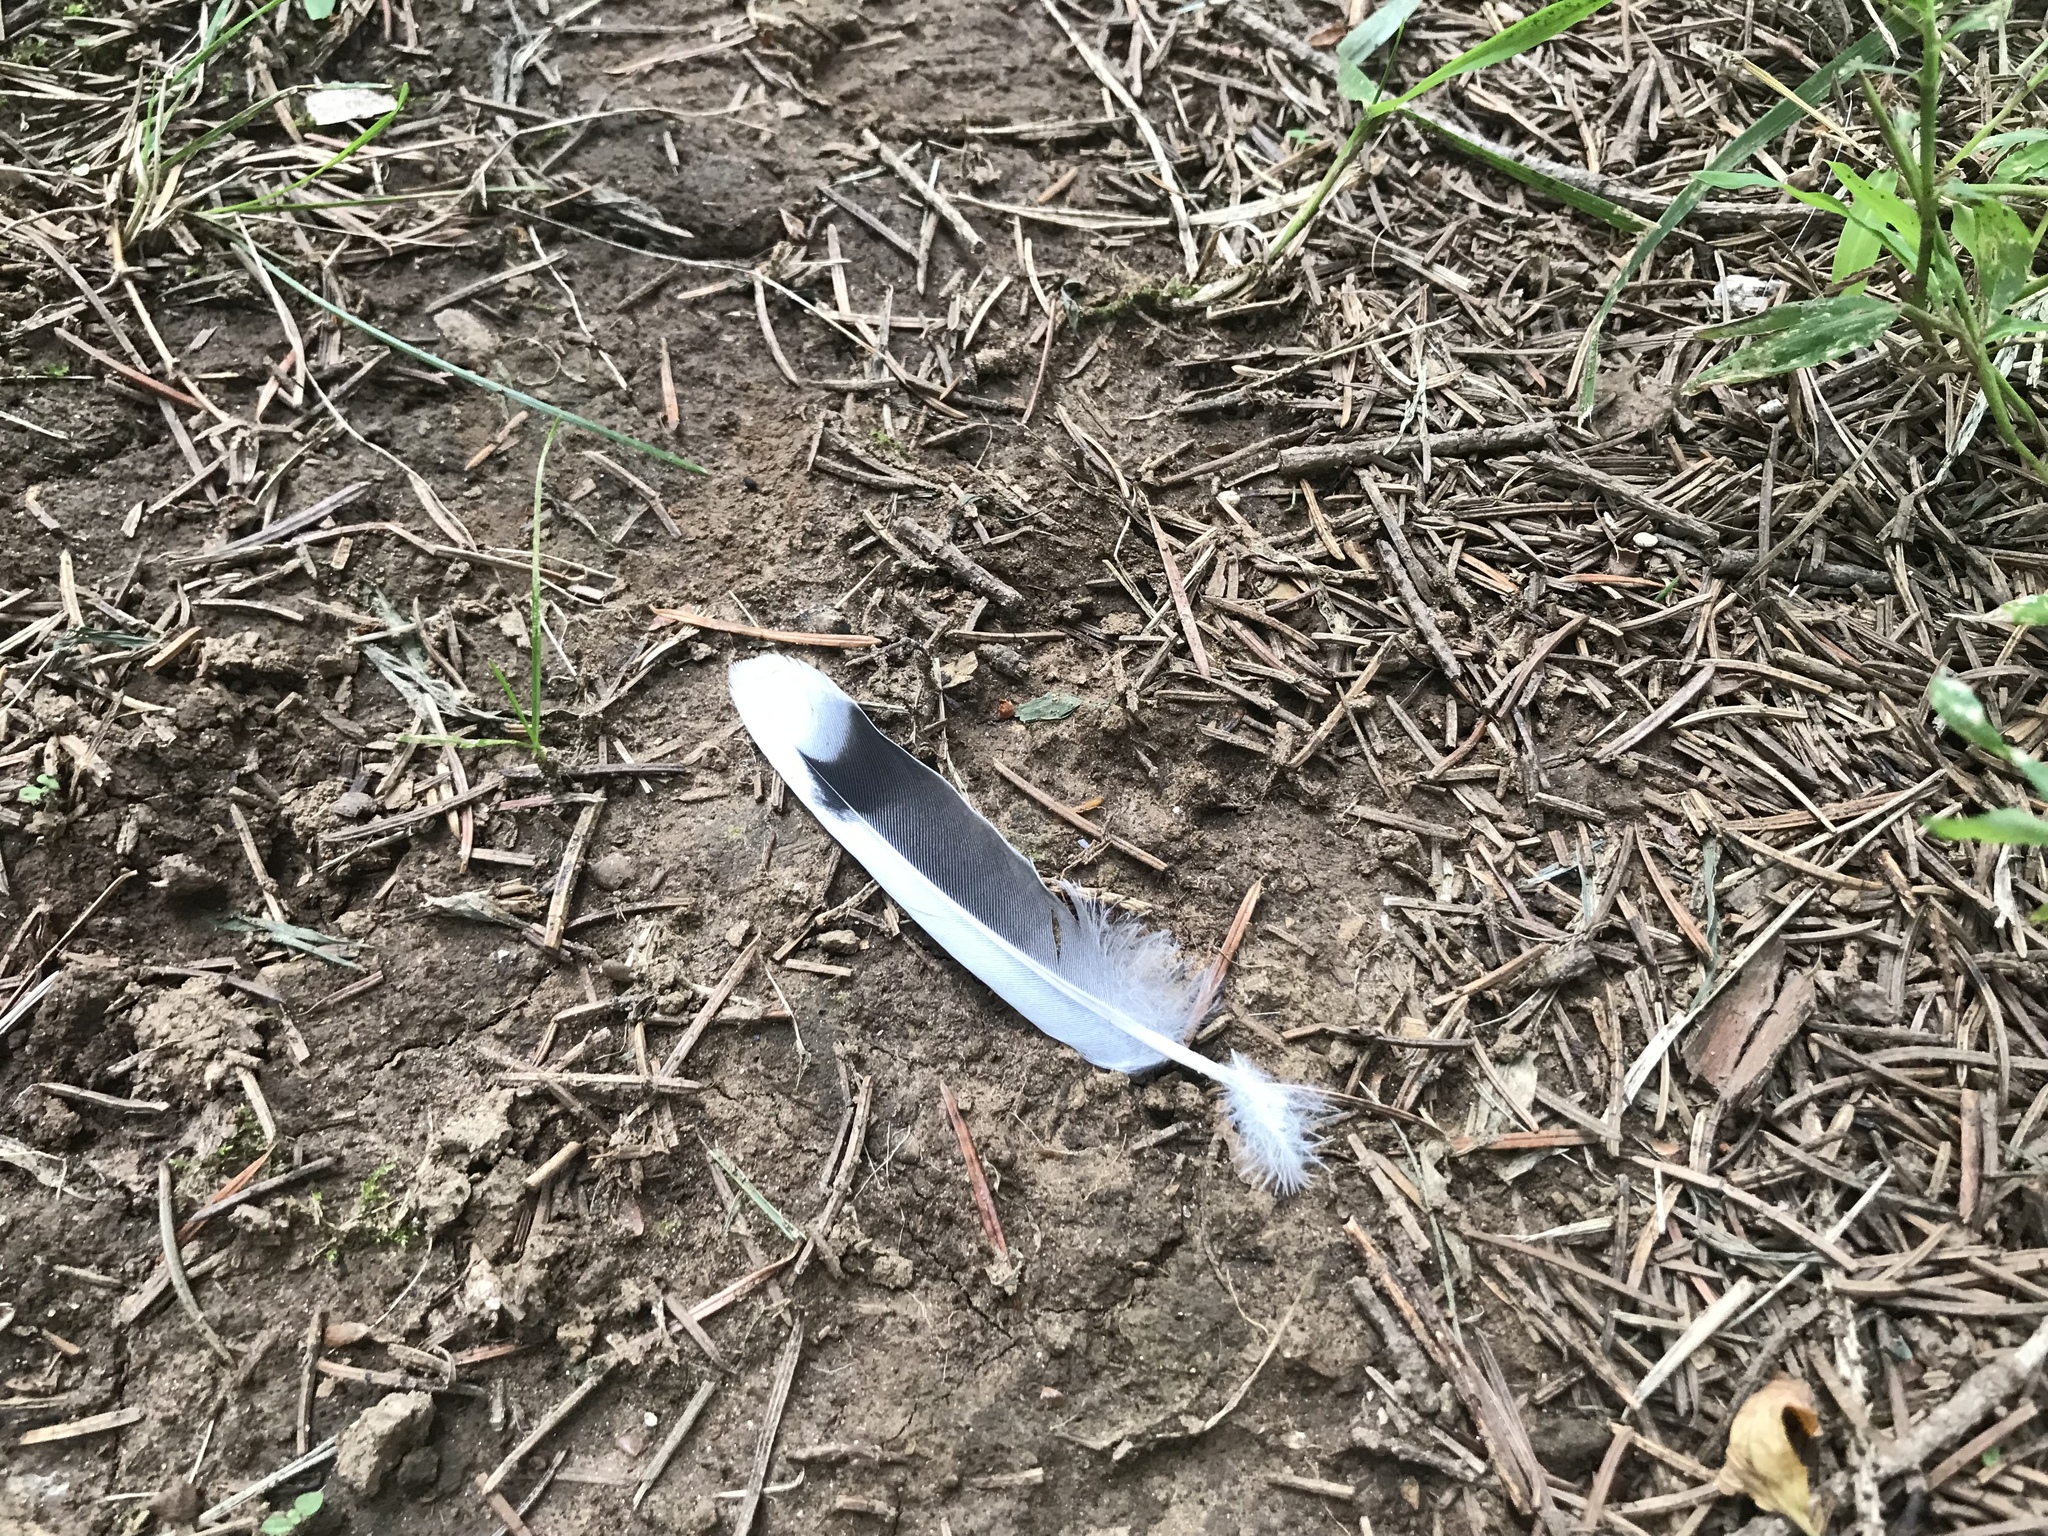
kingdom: Animalia
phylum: Chordata
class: Aves
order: Columbiformes
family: Columbidae
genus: Zenaida
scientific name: Zenaida macroura
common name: Mourning dove
